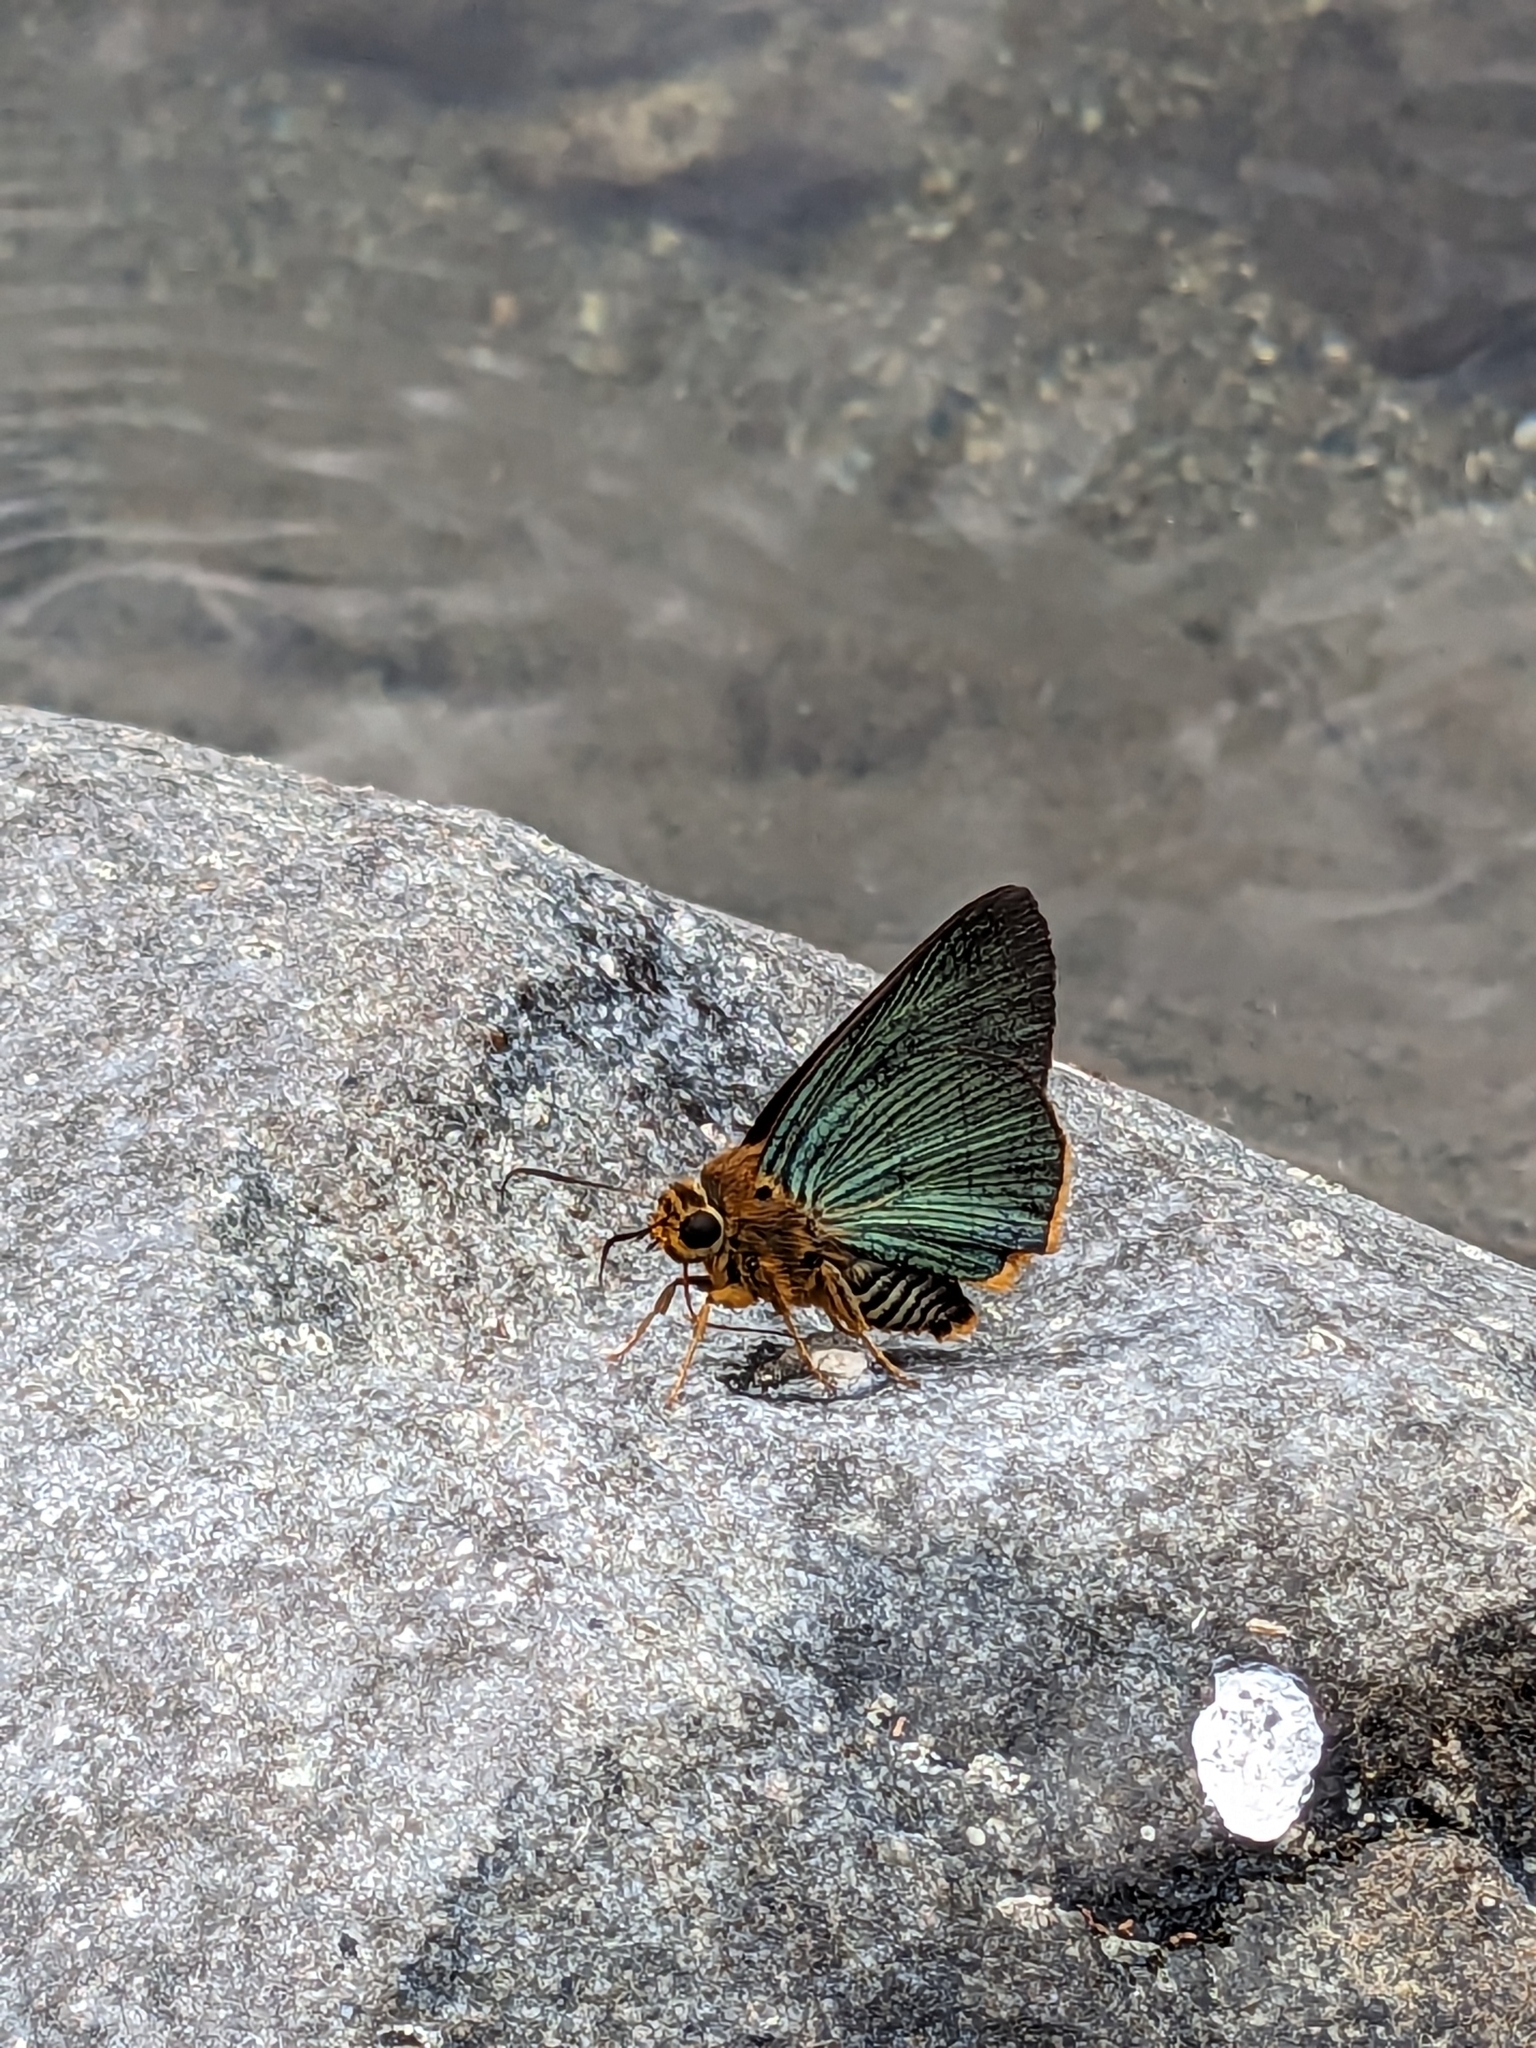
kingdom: Animalia
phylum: Arthropoda
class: Insecta
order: Lepidoptera
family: Hesperiidae
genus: Bibasis
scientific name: Bibasis vasutana
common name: Green awlet
